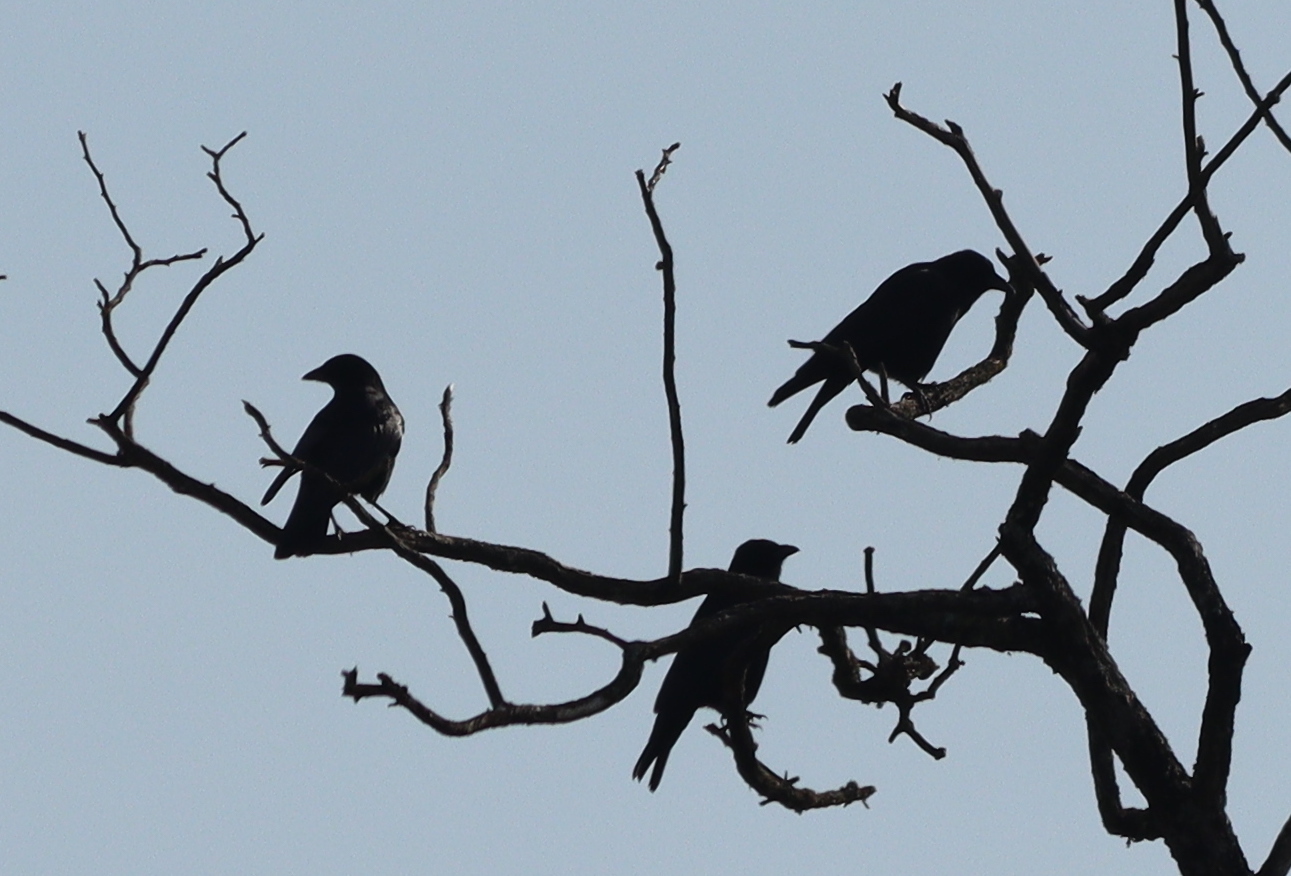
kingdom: Animalia
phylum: Chordata
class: Aves
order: Passeriformes
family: Corvidae
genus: Corvus
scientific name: Corvus corone
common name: Carrion crow
